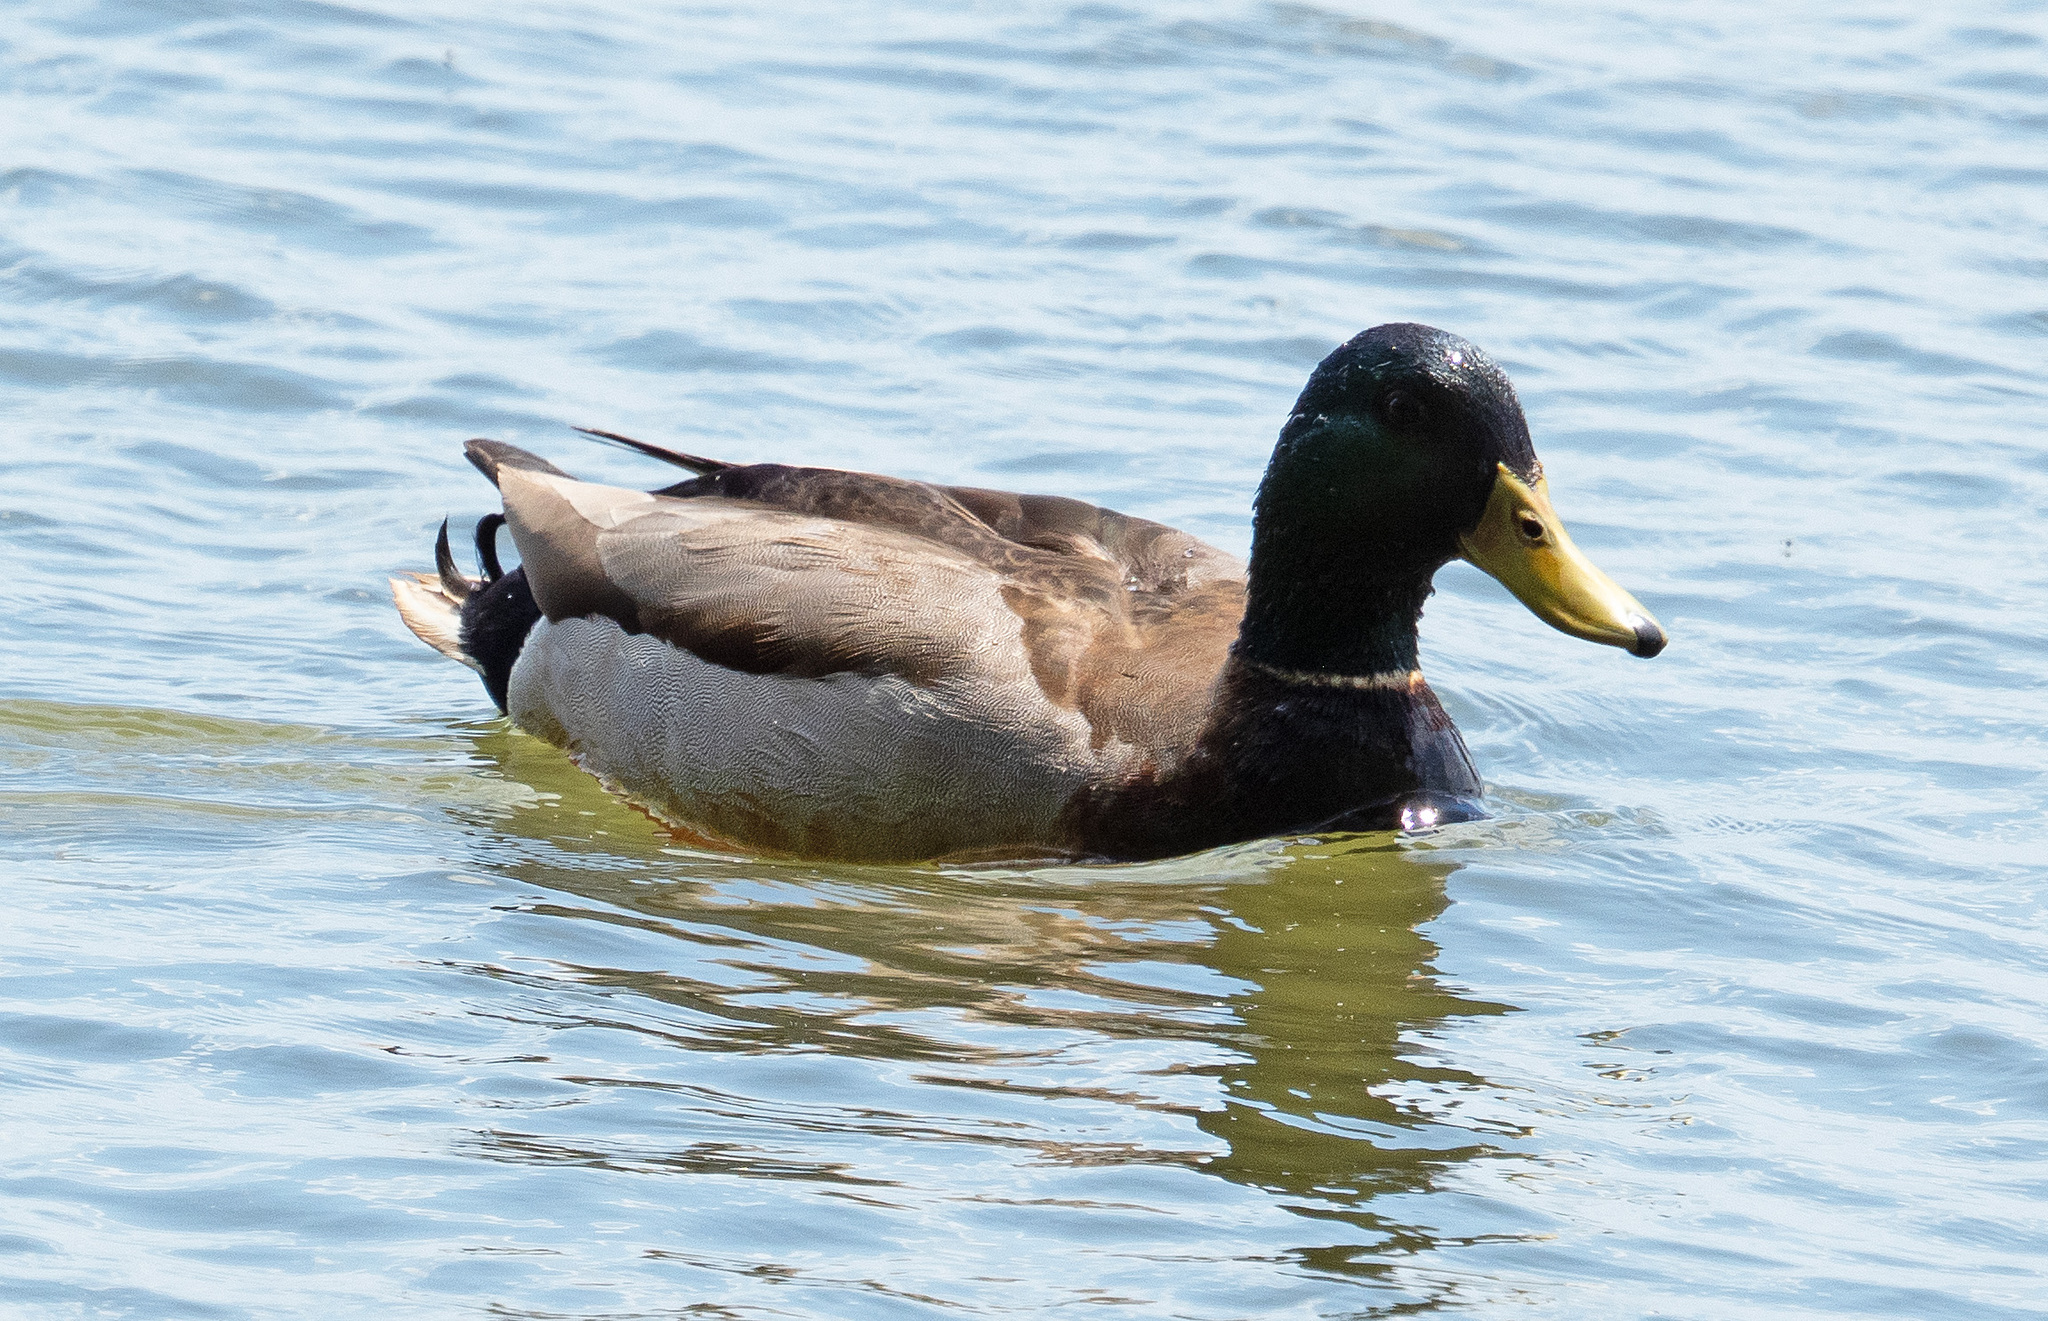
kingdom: Animalia
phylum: Chordata
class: Aves
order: Anseriformes
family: Anatidae
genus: Anas
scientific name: Anas platyrhynchos
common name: Mallard
